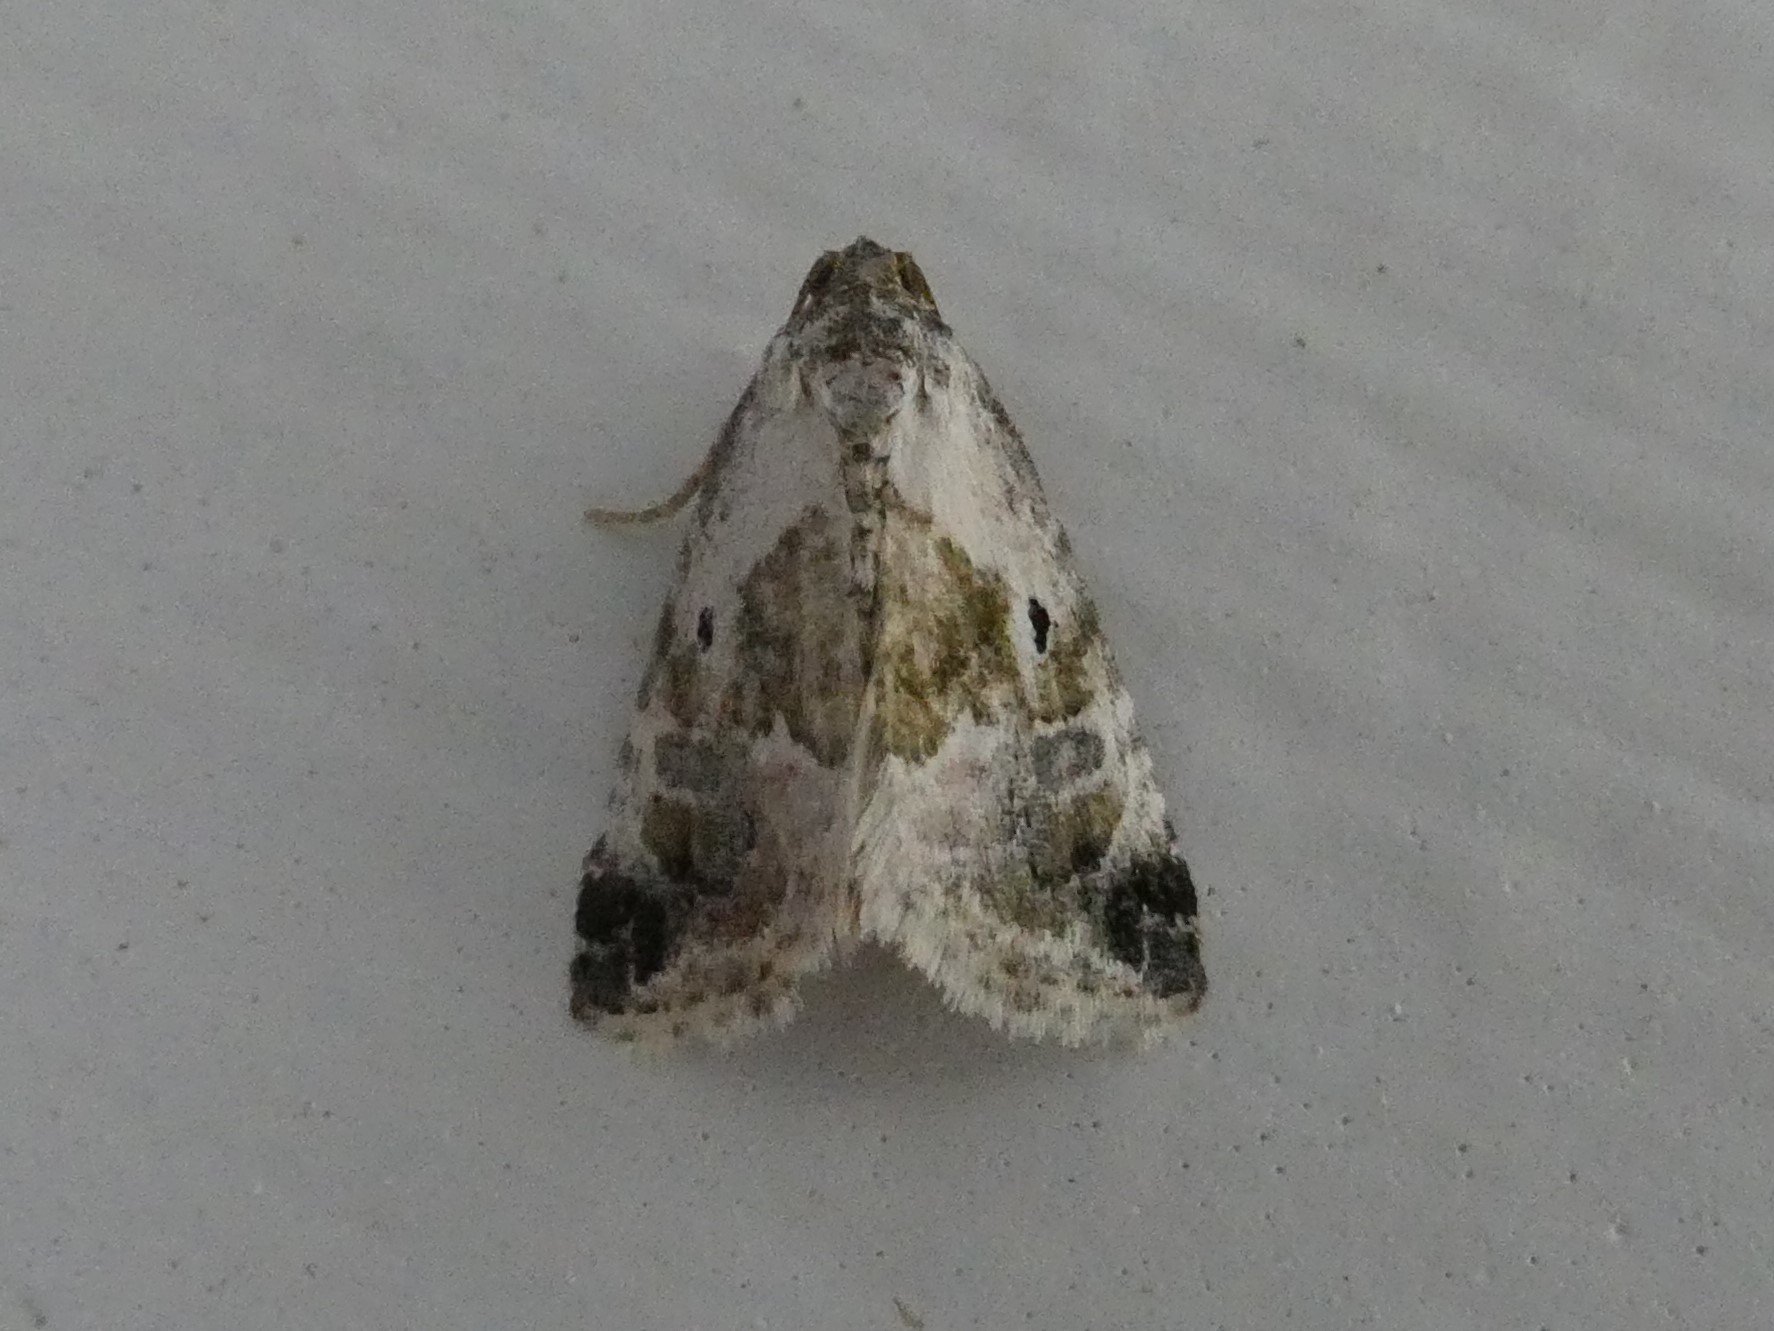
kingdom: Animalia
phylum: Arthropoda
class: Insecta
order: Lepidoptera
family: Noctuidae
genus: Maliattha
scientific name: Maliattha synochitis
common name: Black-dotted glyph
